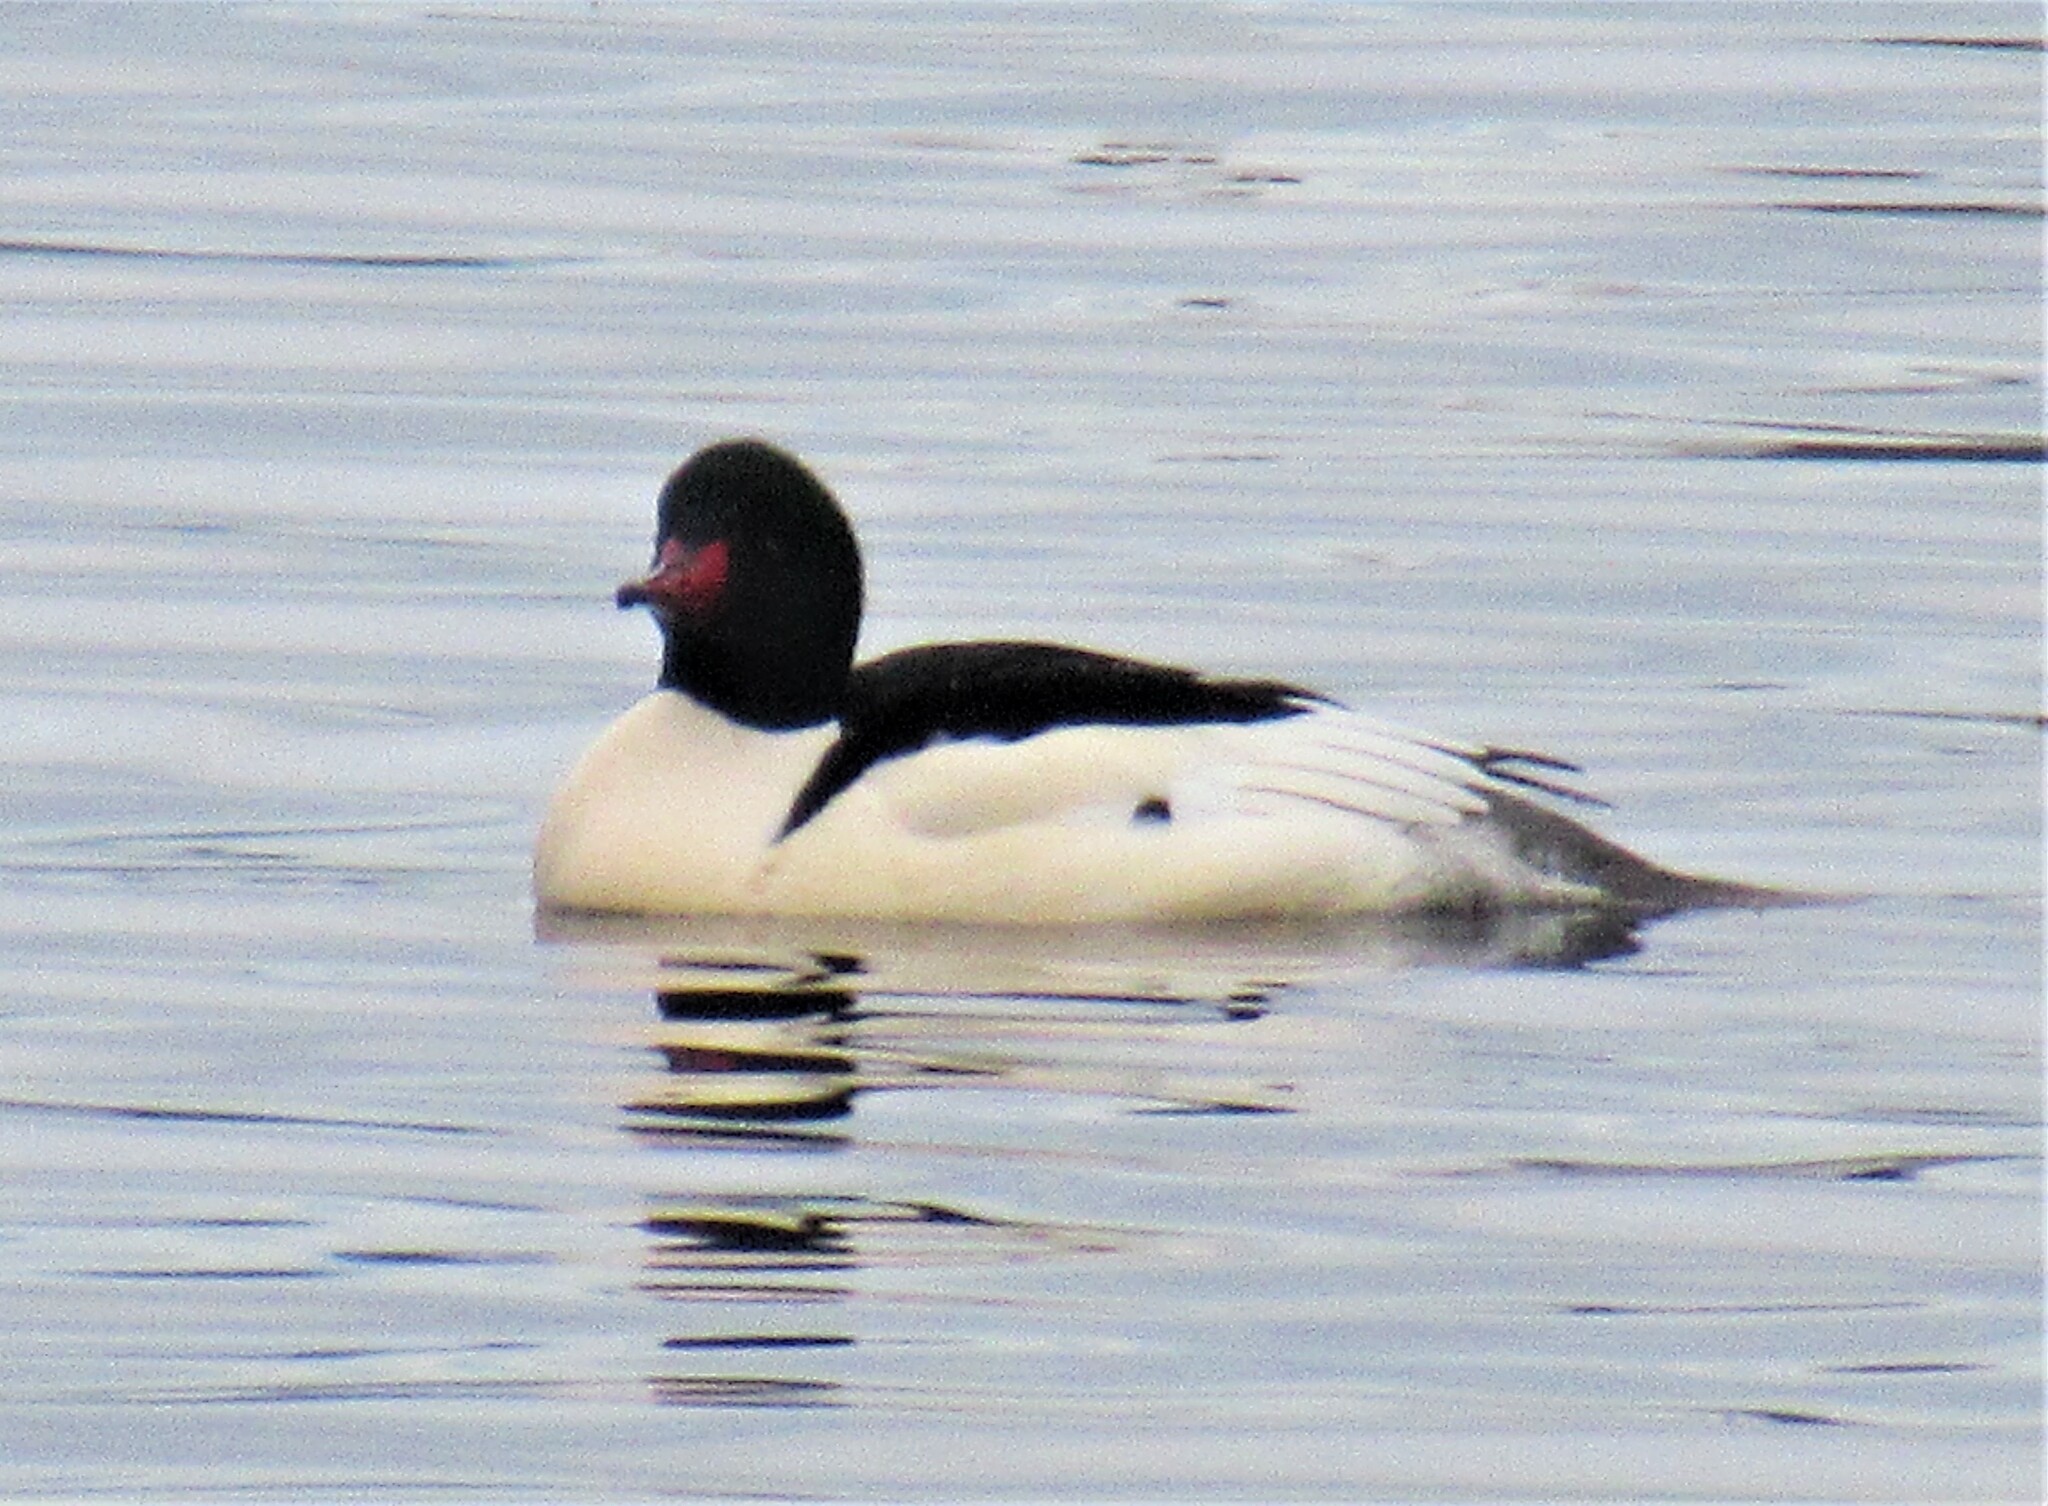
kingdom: Animalia
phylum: Chordata
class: Aves
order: Anseriformes
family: Anatidae
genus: Mergus
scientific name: Mergus merganser
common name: Common merganser
